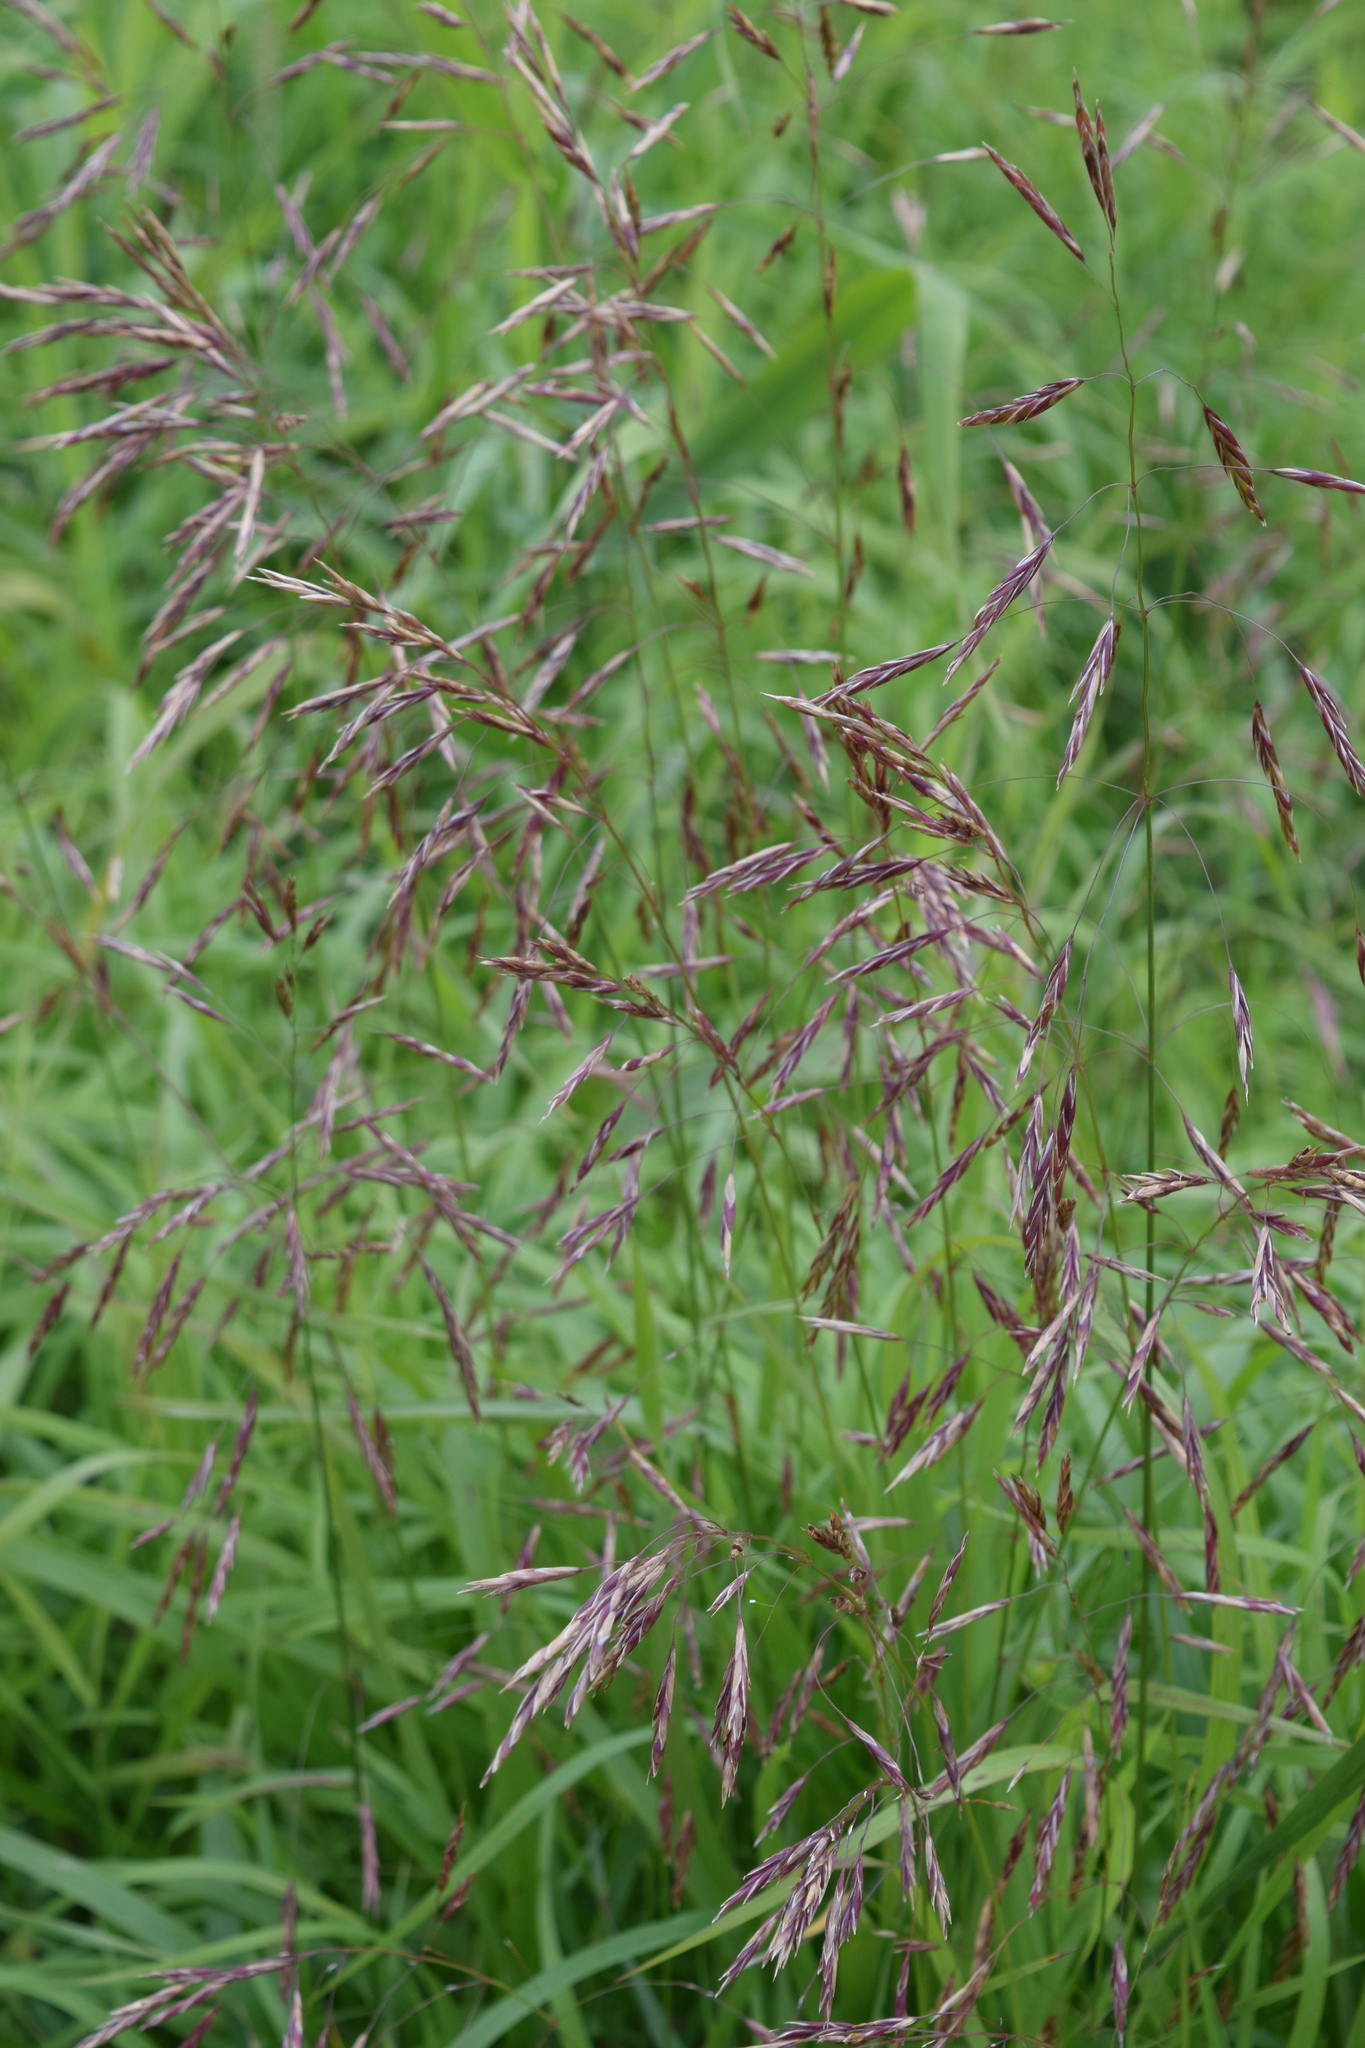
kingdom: Plantae
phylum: Tracheophyta
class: Liliopsida
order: Poales
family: Poaceae
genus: Bromus
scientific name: Bromus inermis
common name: Smooth brome
